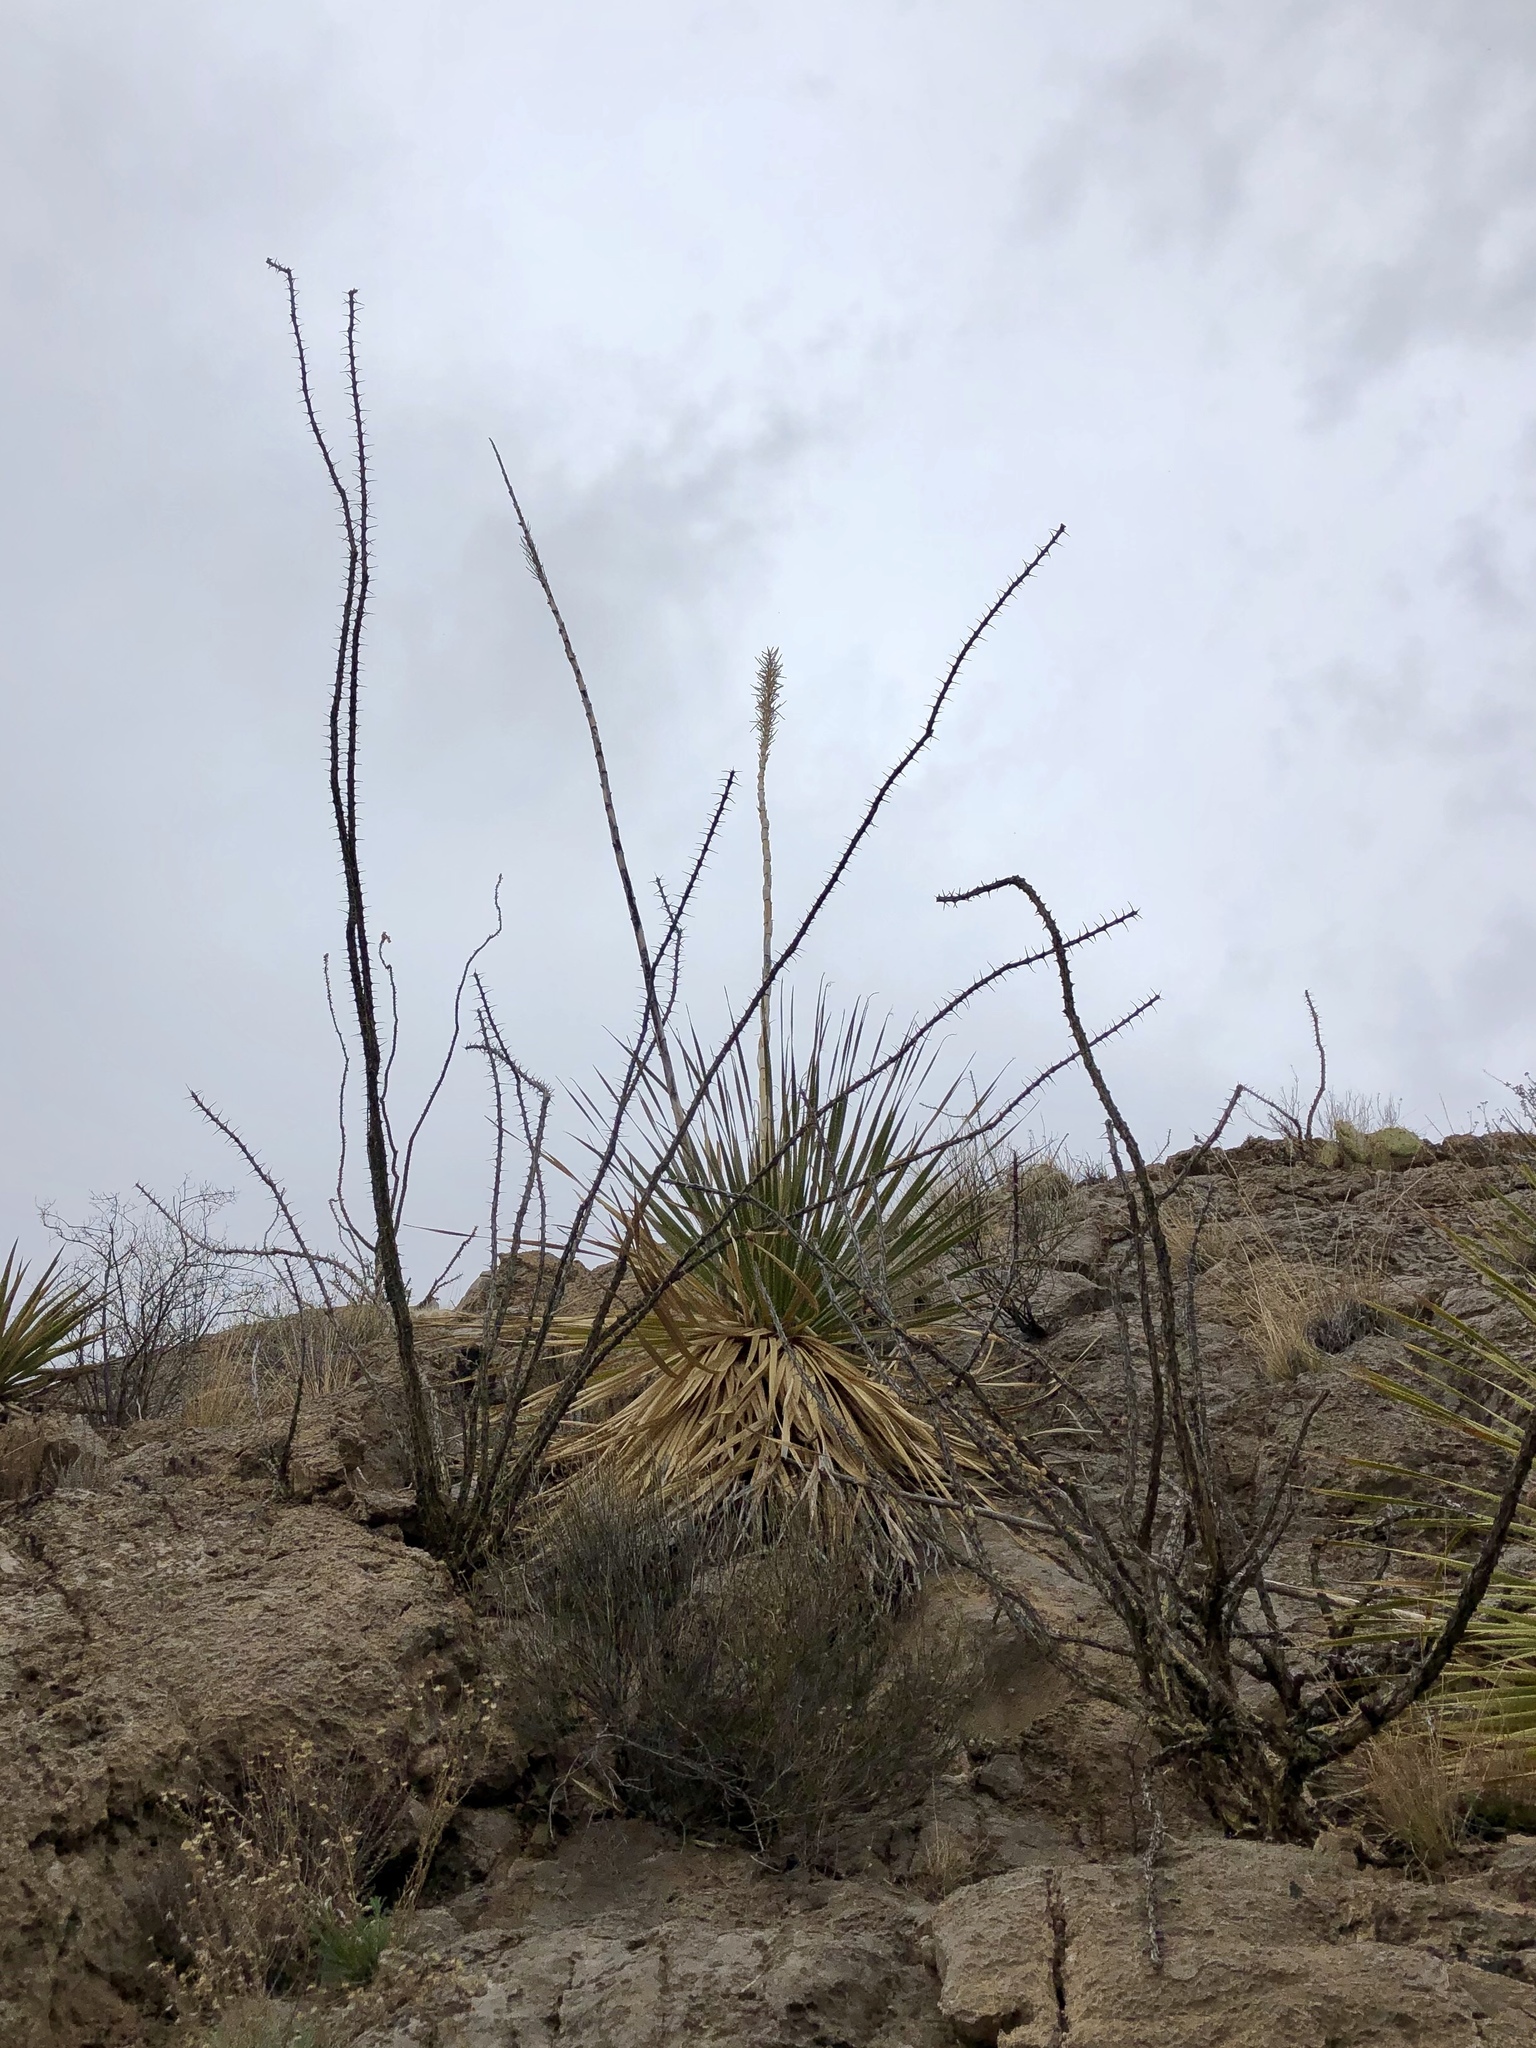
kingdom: Plantae
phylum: Tracheophyta
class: Magnoliopsida
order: Ericales
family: Fouquieriaceae
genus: Fouquieria
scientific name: Fouquieria splendens
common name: Vine-cactus
